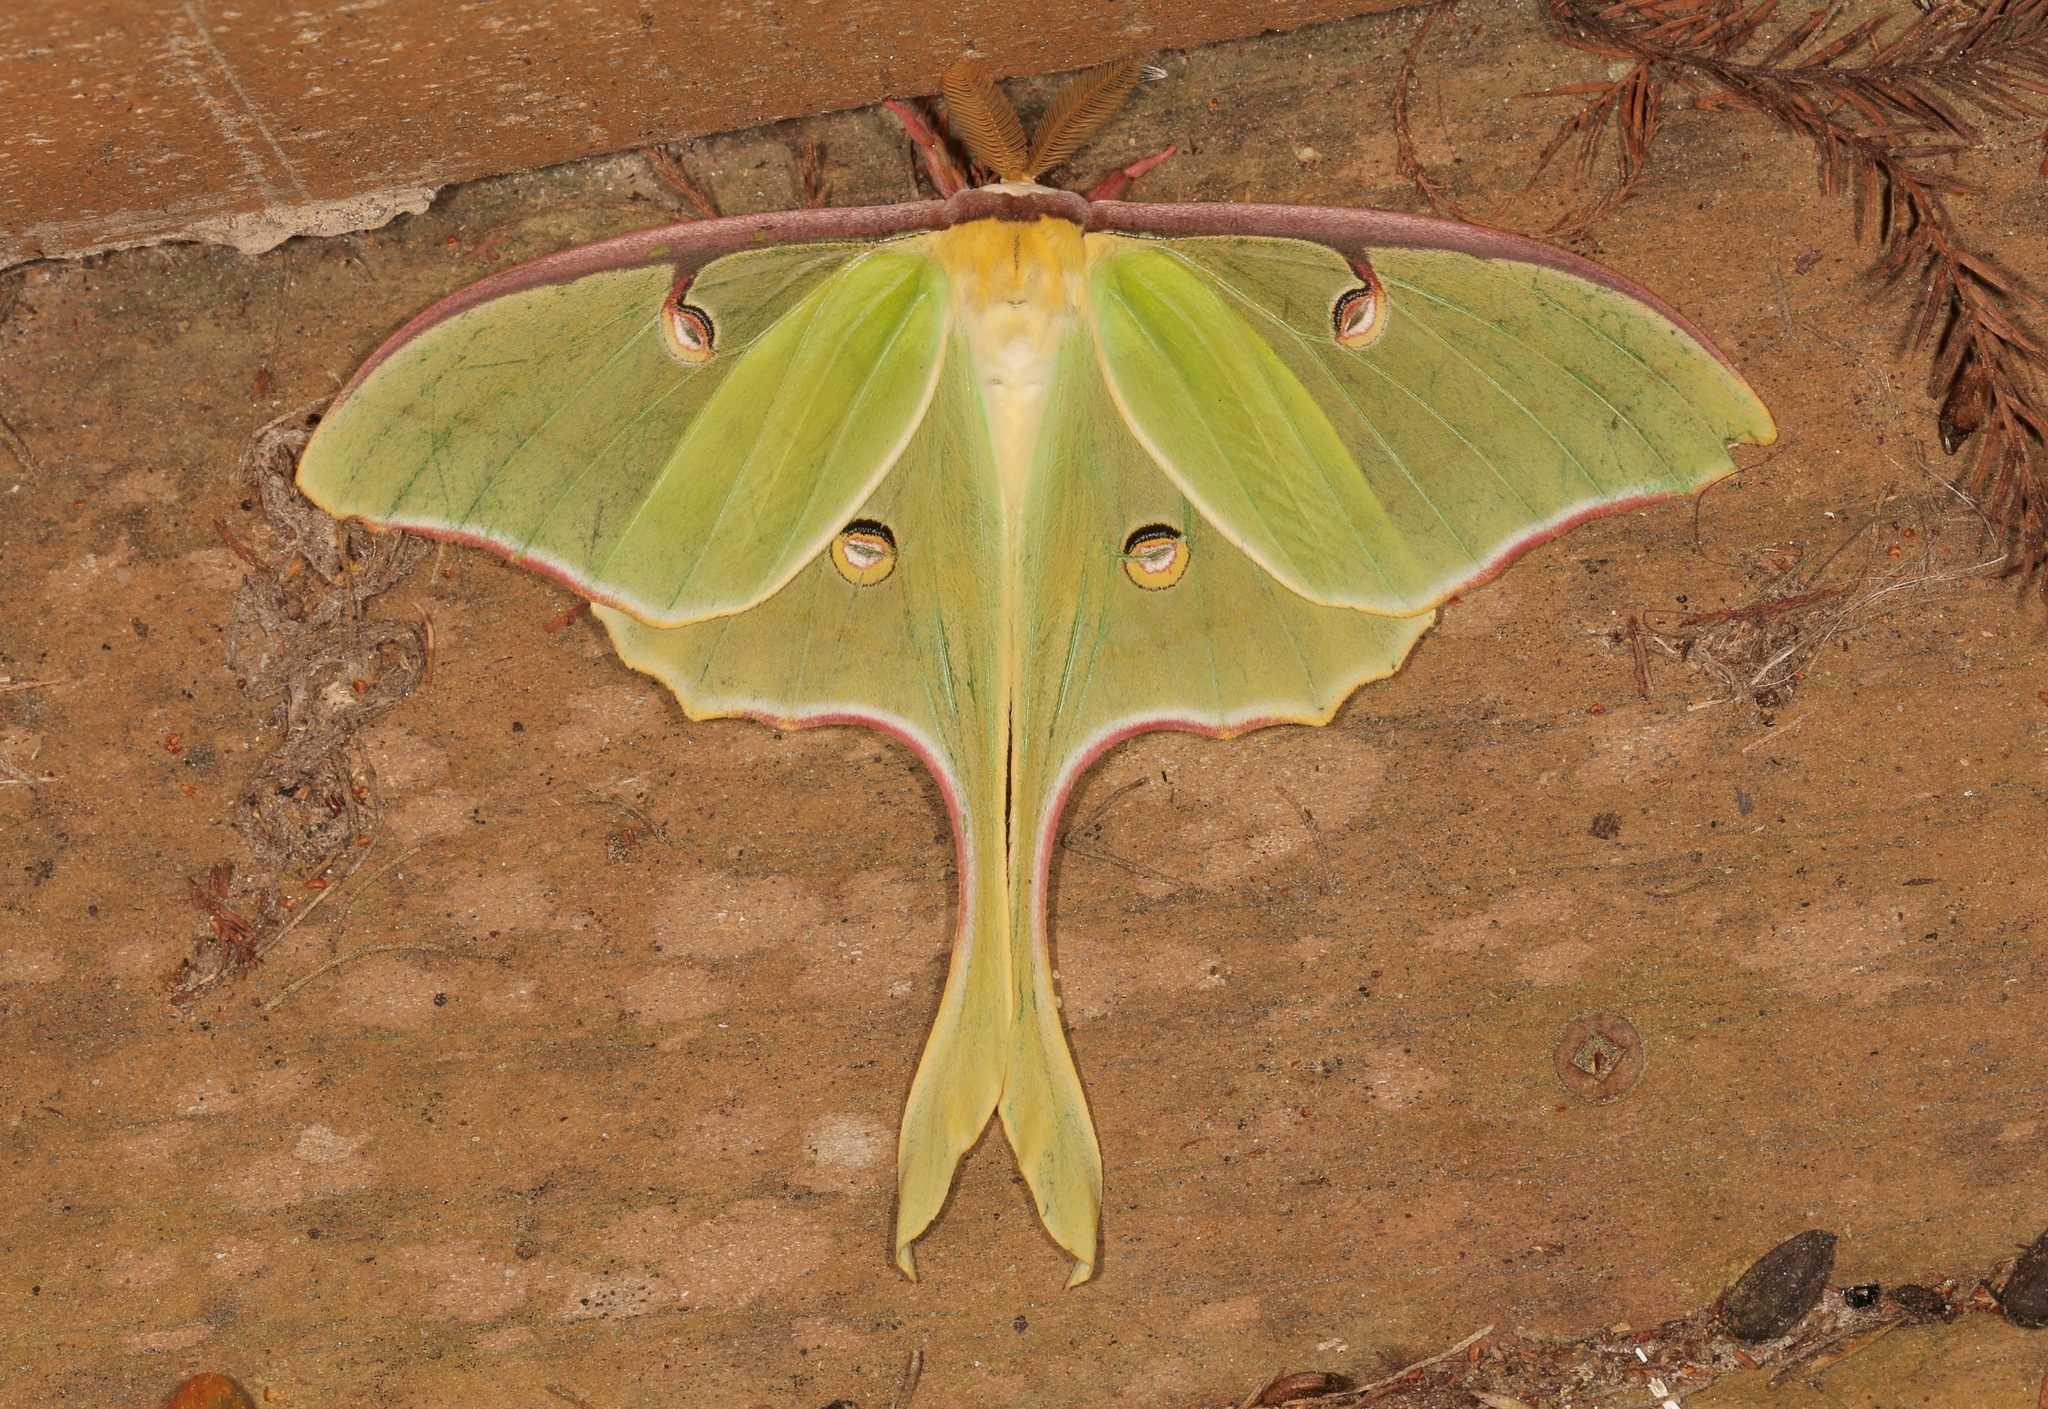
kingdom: Animalia
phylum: Arthropoda
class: Insecta
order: Lepidoptera
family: Saturniidae
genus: Actias
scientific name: Actias luna
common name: Luna moth
